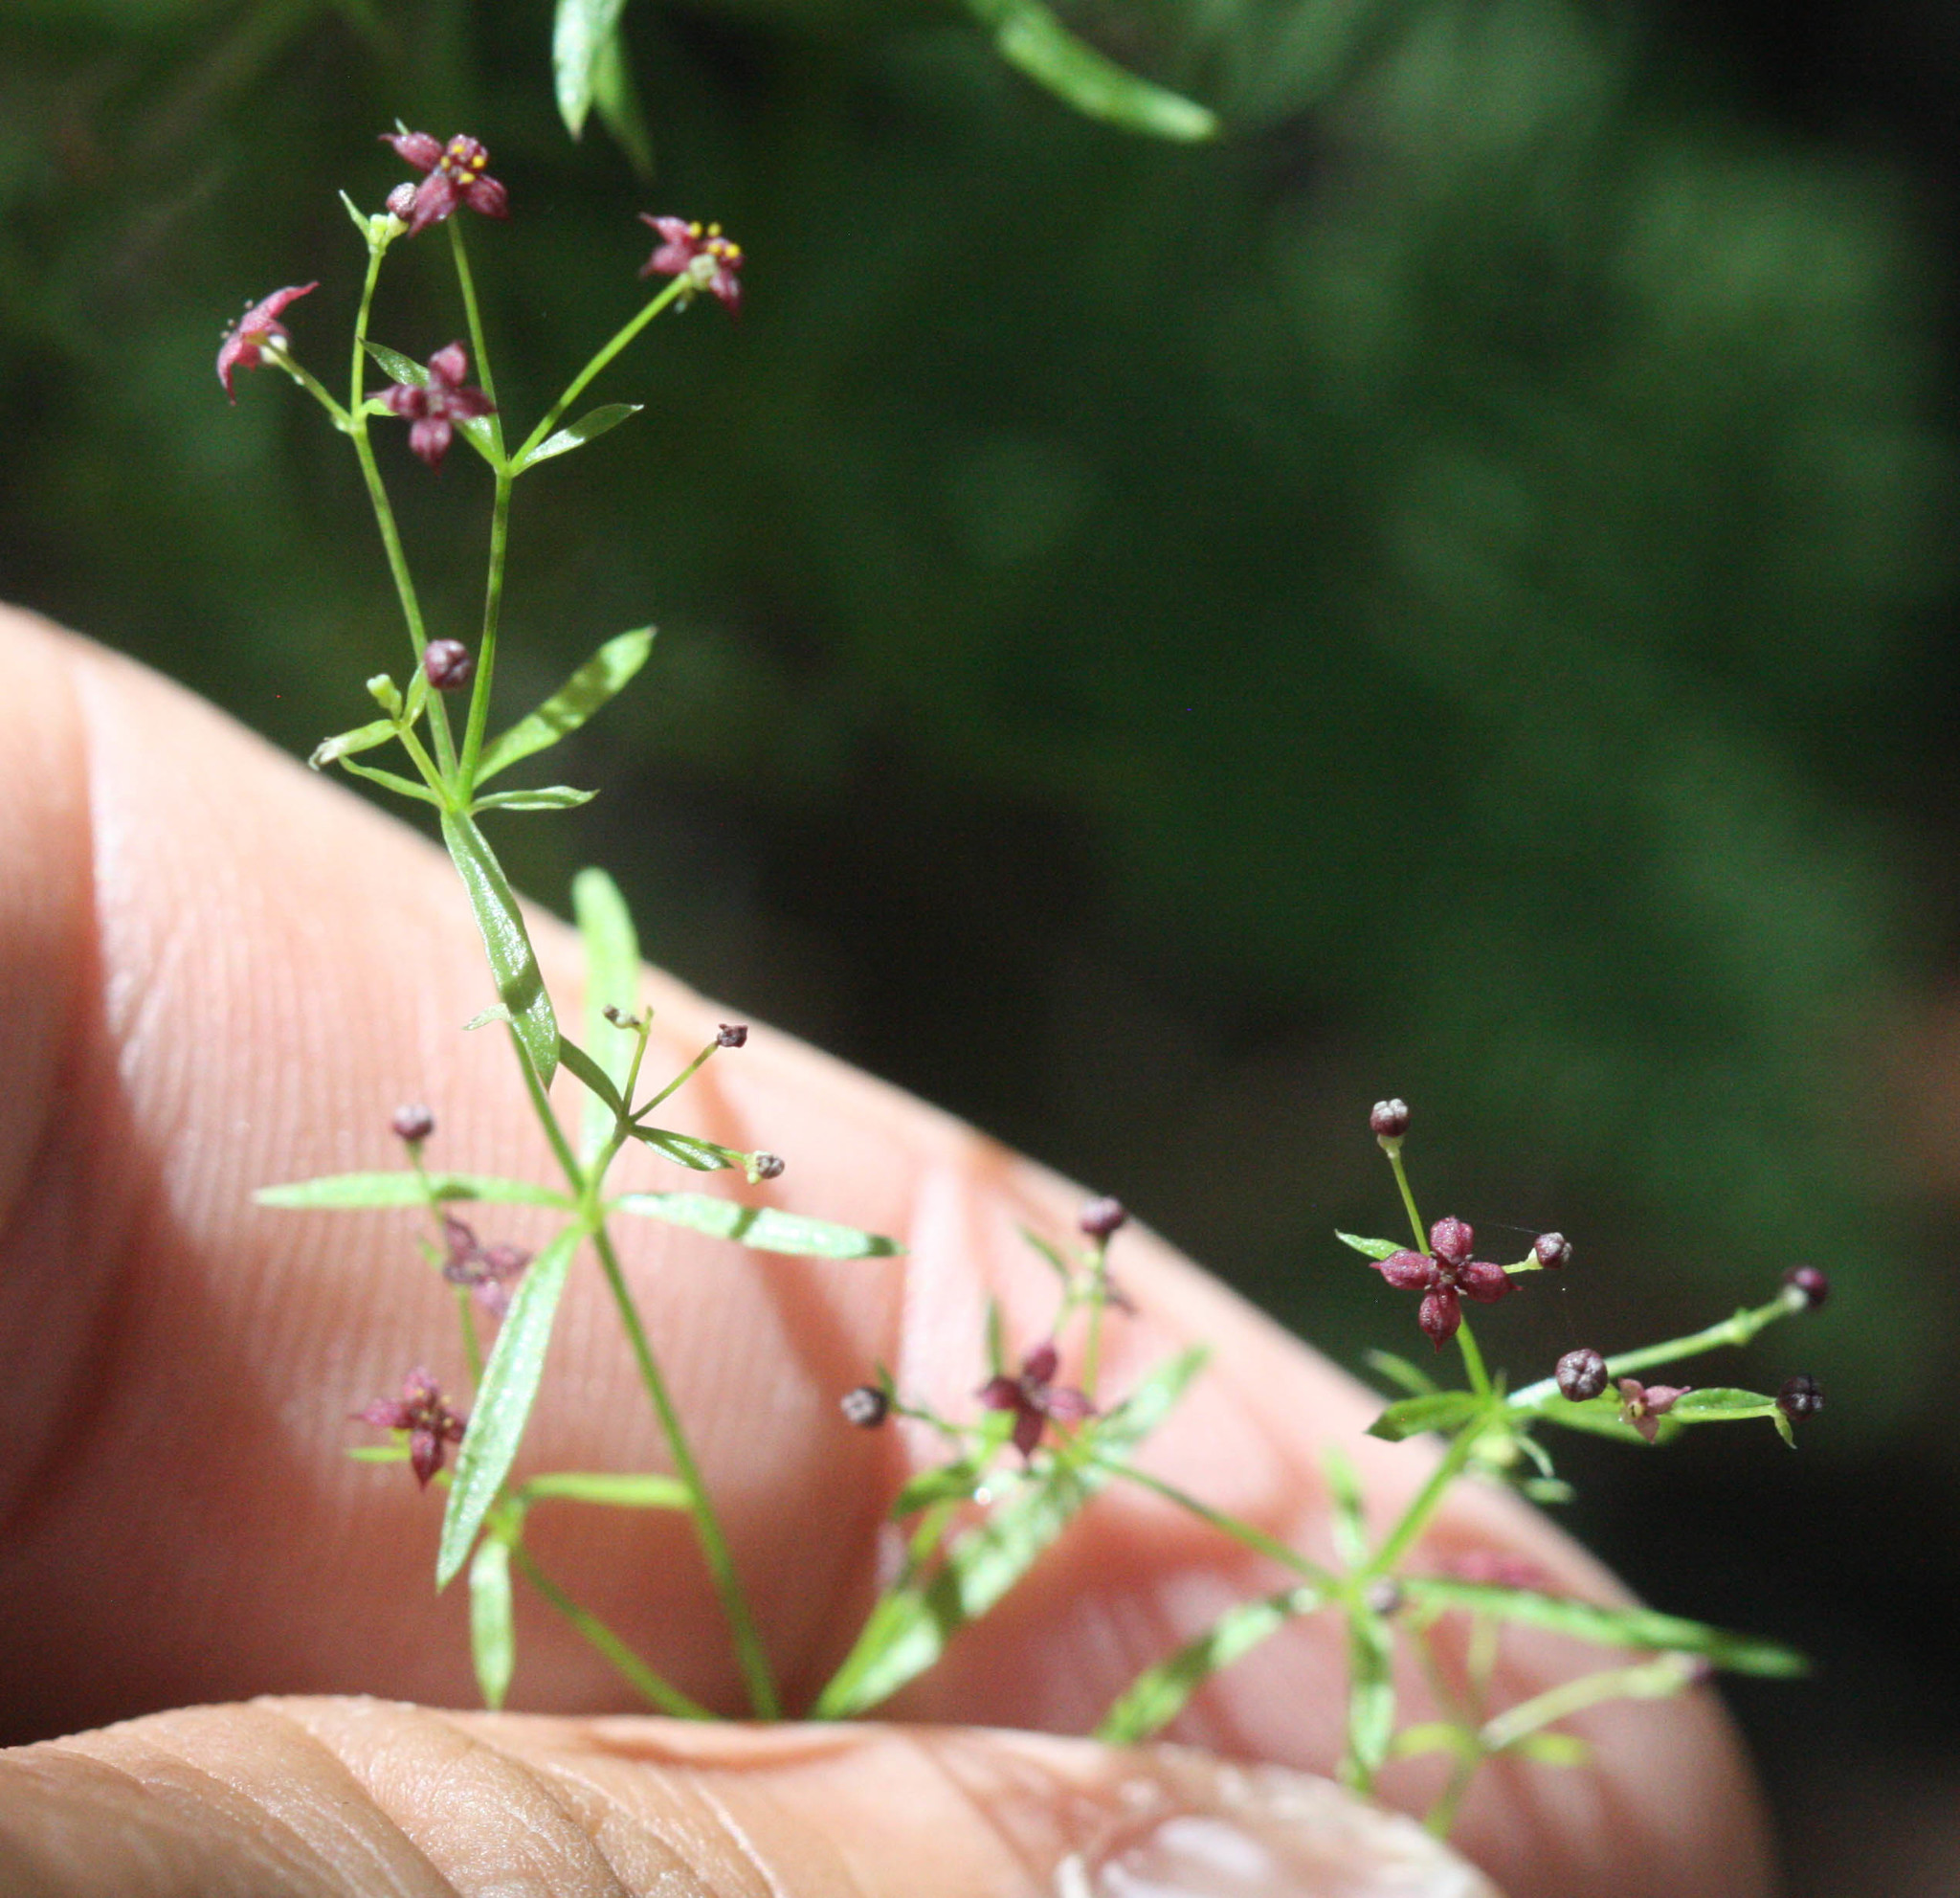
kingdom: Plantae
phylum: Tracheophyta
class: Magnoliopsida
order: Gentianales
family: Rubiaceae
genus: Galium
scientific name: Galium wrightii
